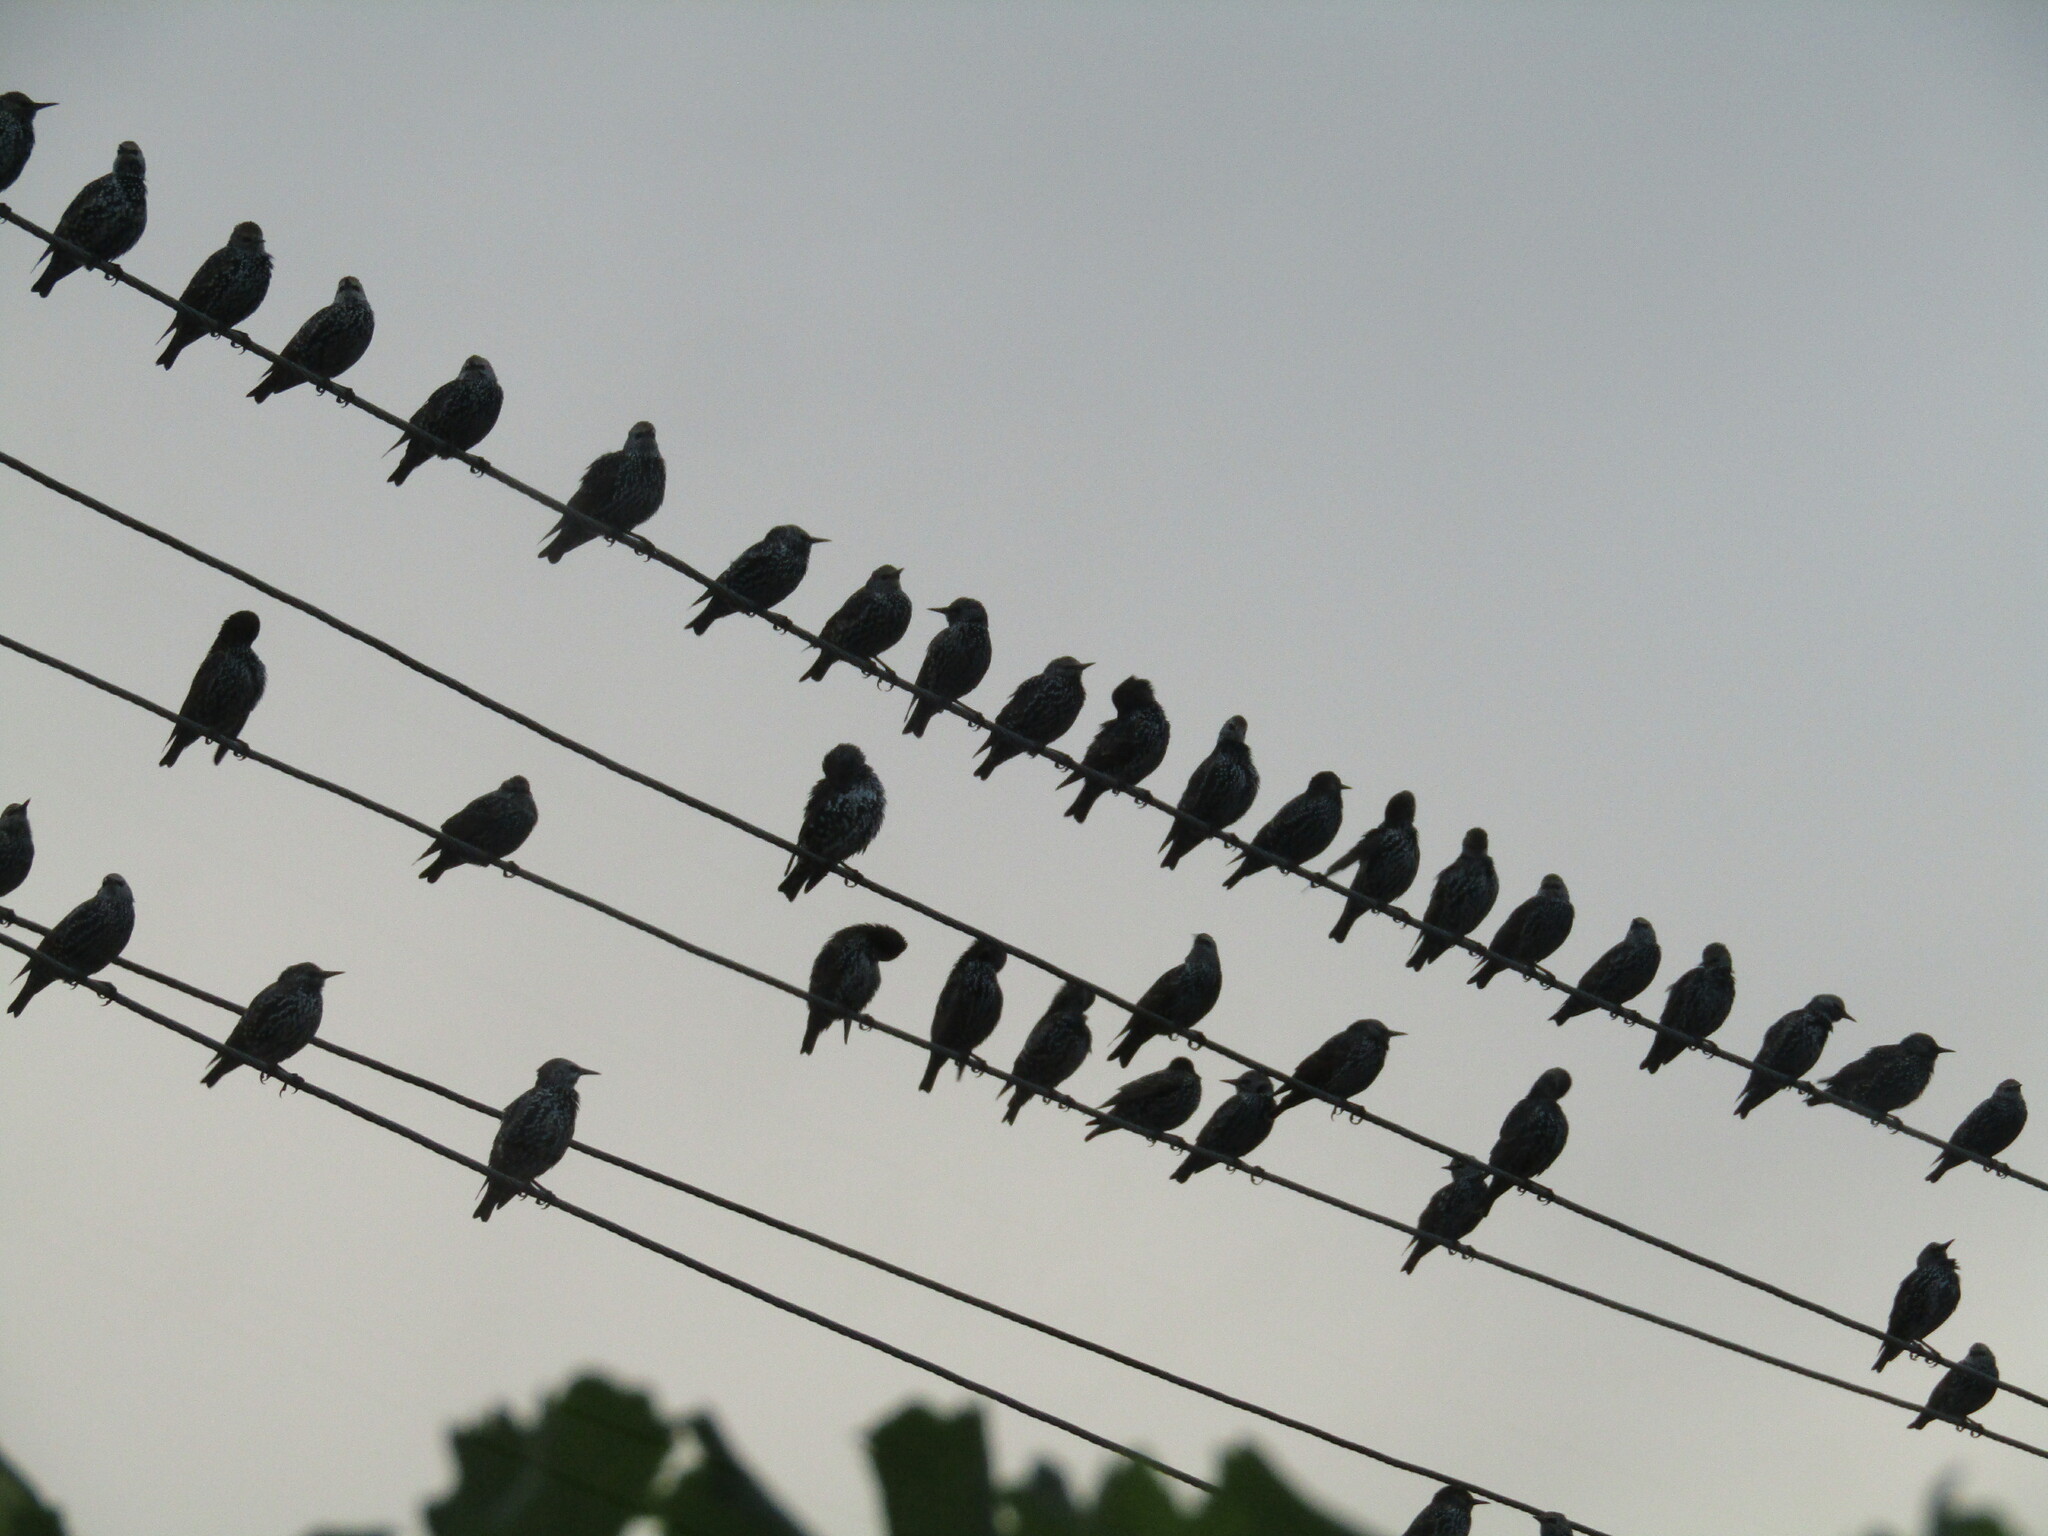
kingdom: Animalia
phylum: Chordata
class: Aves
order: Passeriformes
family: Sturnidae
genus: Sturnus
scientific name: Sturnus vulgaris
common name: Common starling
